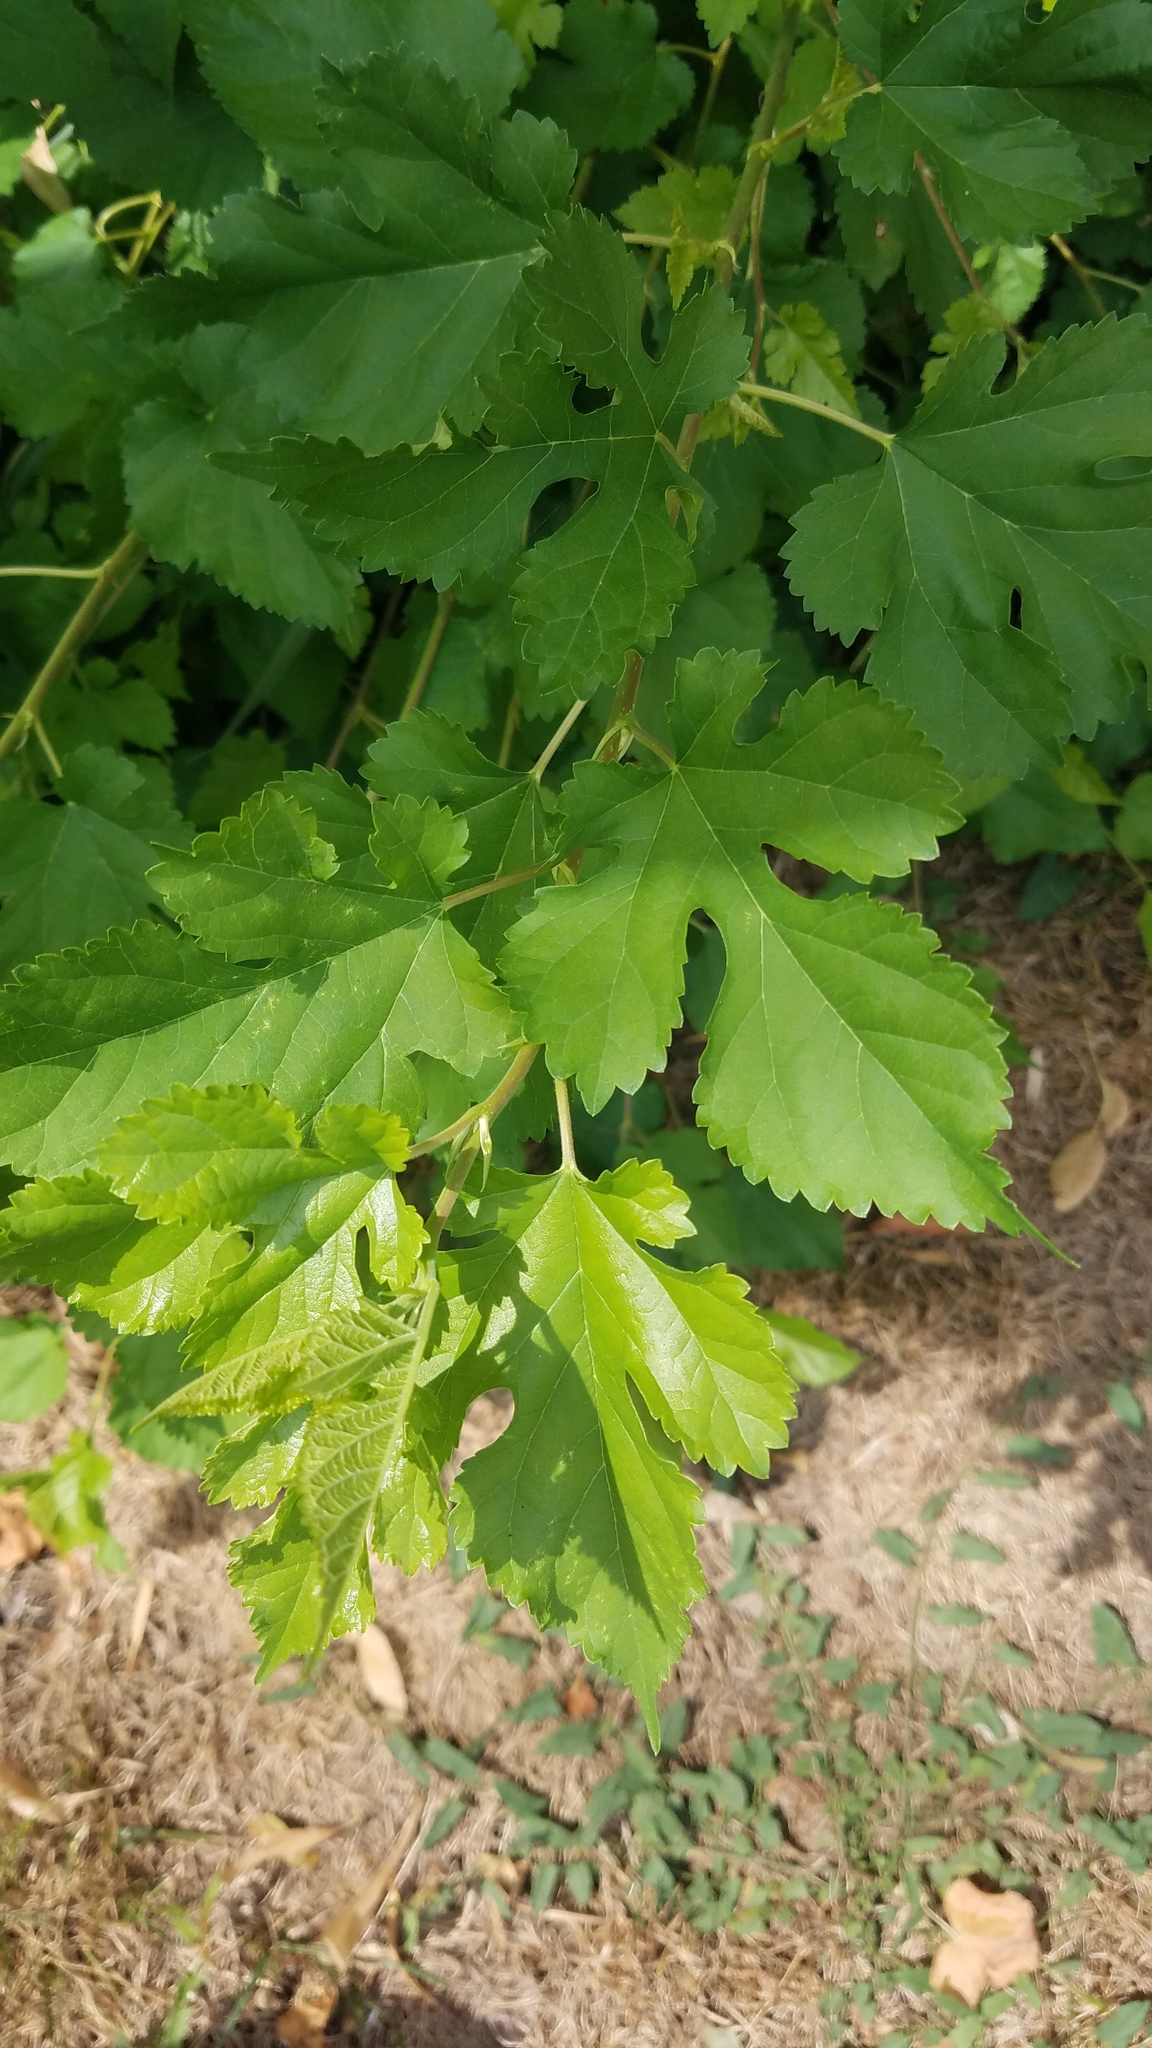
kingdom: Plantae
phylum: Tracheophyta
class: Magnoliopsida
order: Rosales
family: Moraceae
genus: Morus
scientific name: Morus alba
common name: White mulberry
